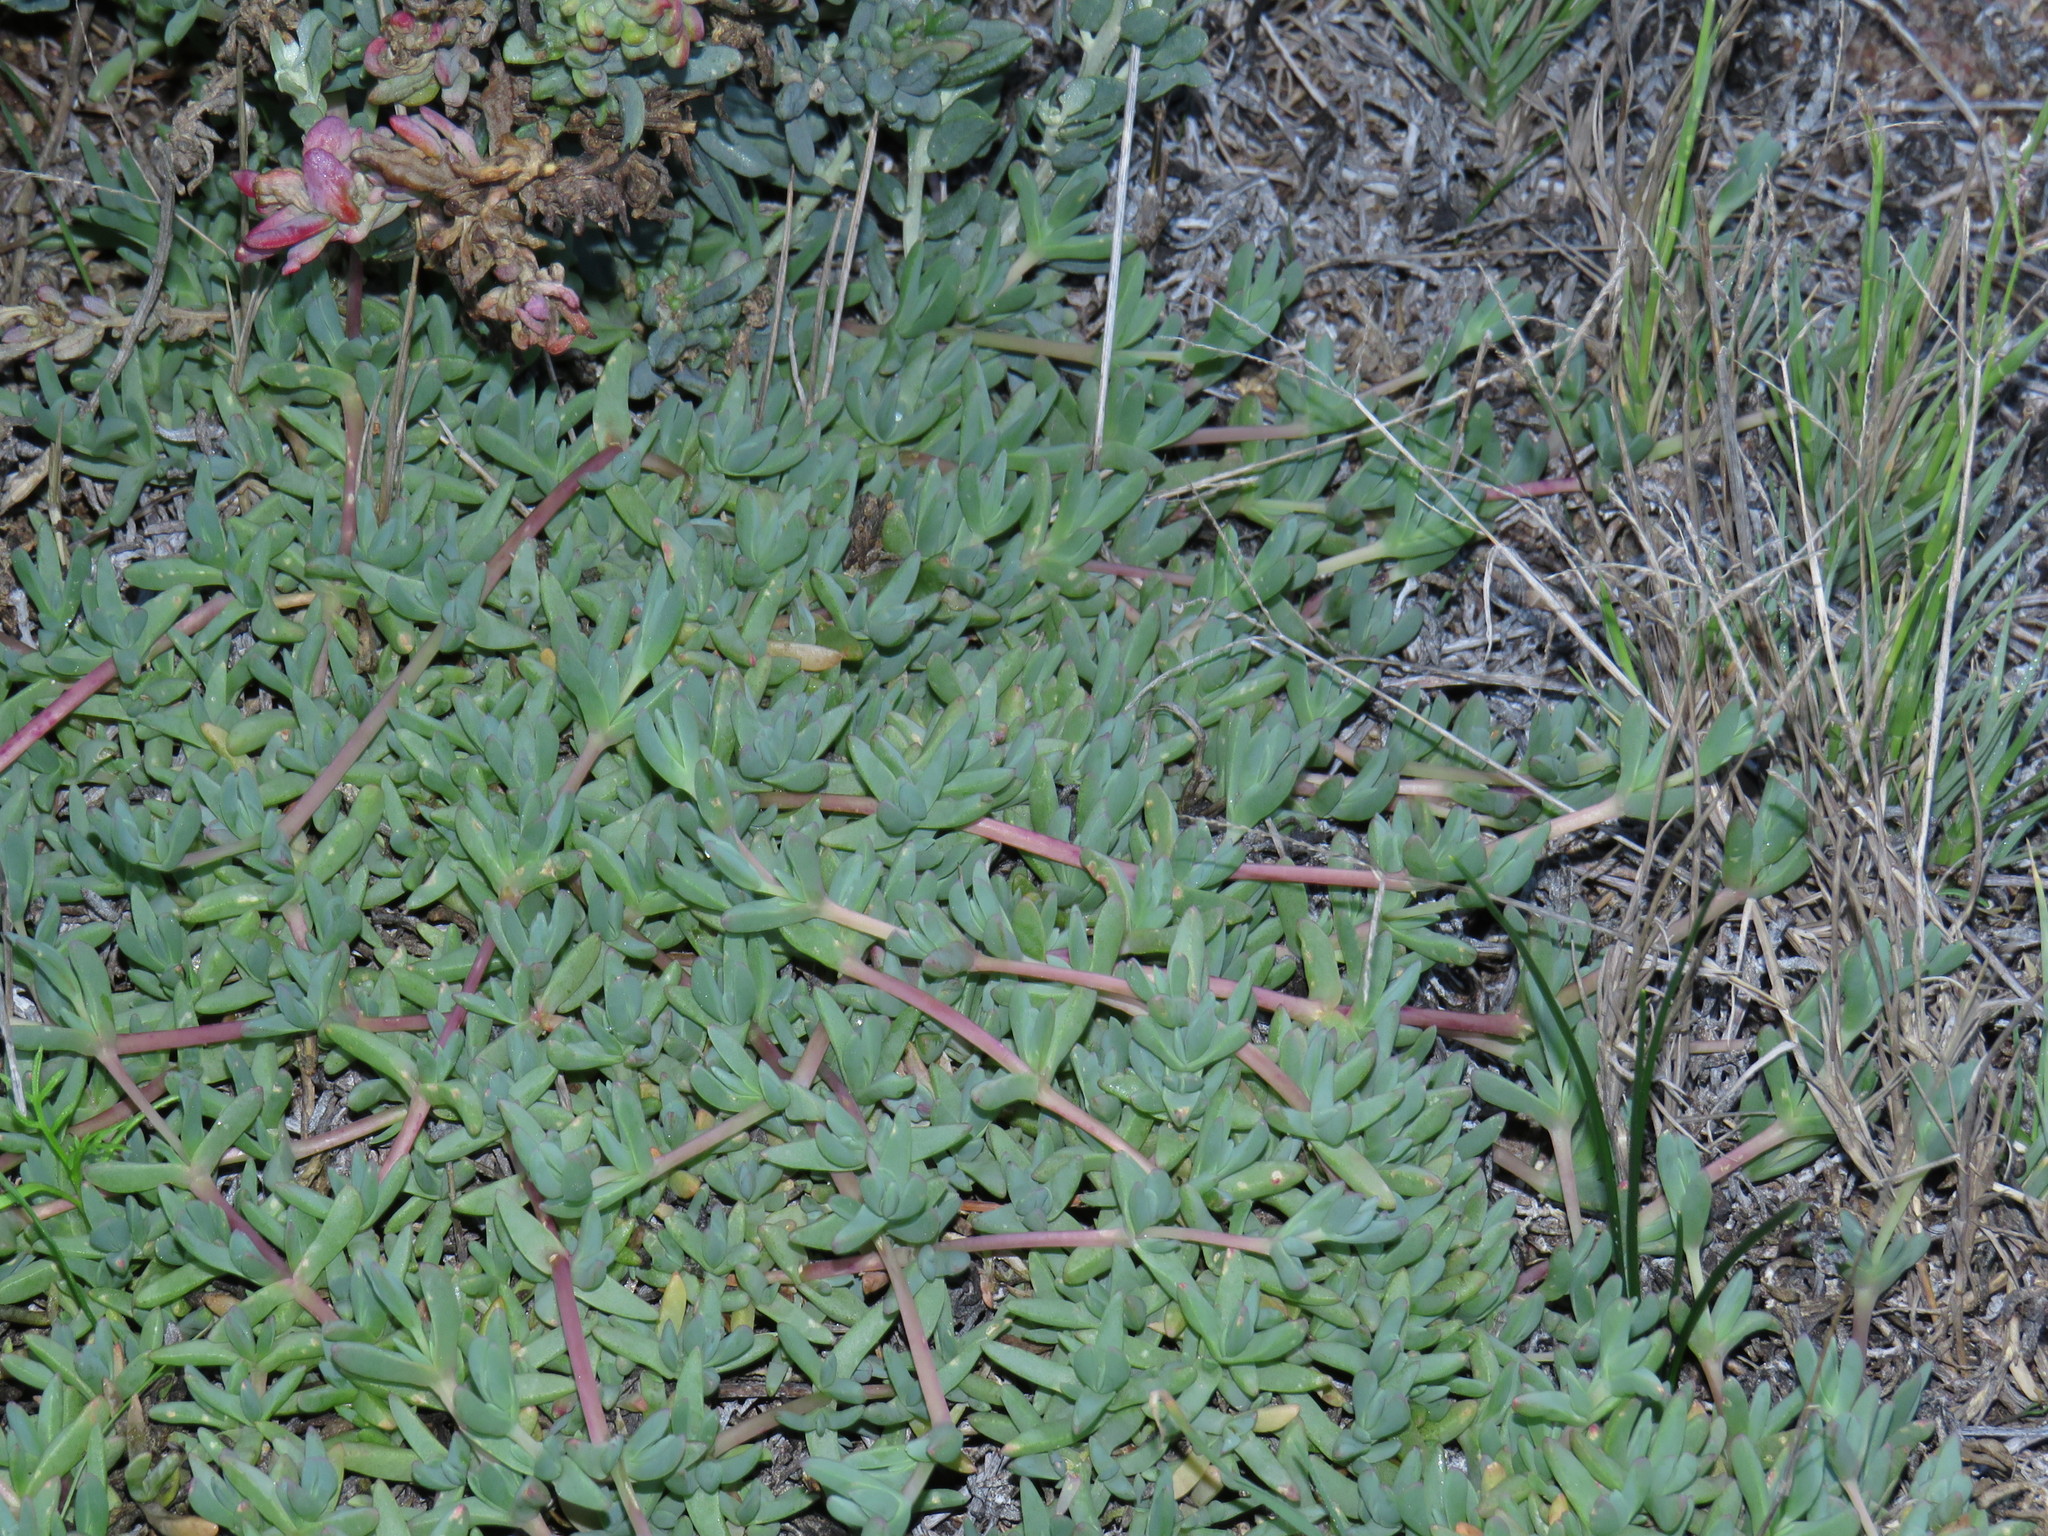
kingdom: Plantae
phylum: Tracheophyta
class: Magnoliopsida
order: Caryophyllales
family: Aizoaceae
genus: Lampranthus
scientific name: Lampranthus debilis
